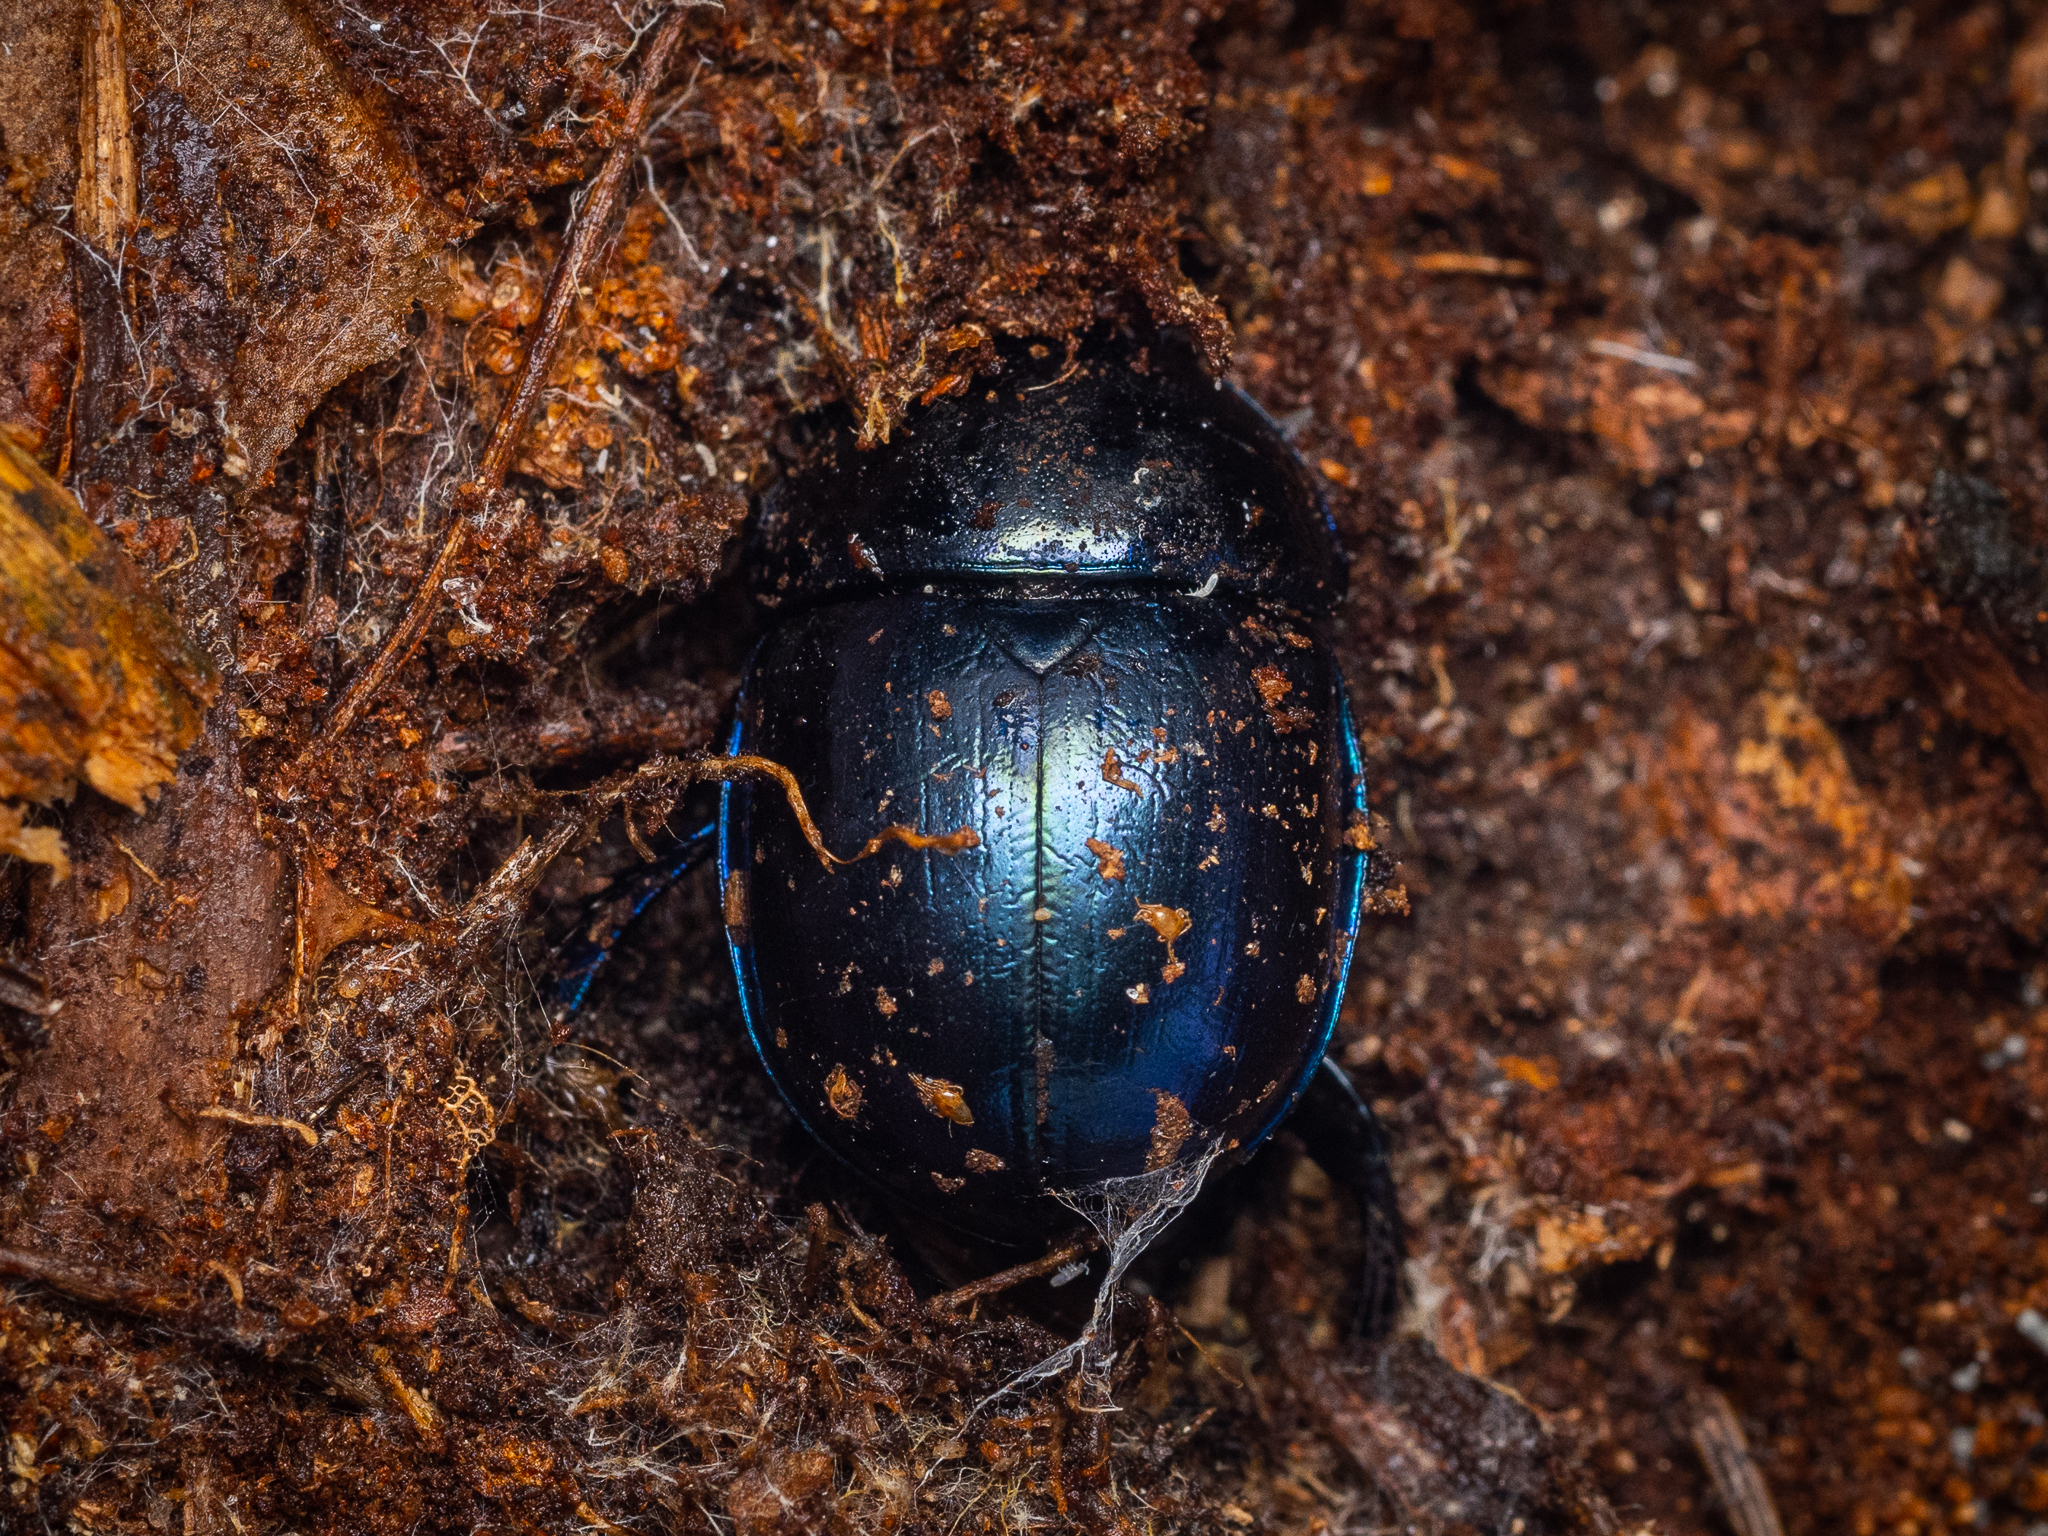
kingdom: Animalia
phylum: Arthropoda
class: Insecta
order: Coleoptera
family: Geotrupidae
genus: Trypocopris
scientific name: Trypocopris vernalis
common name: Spring dumbledor
